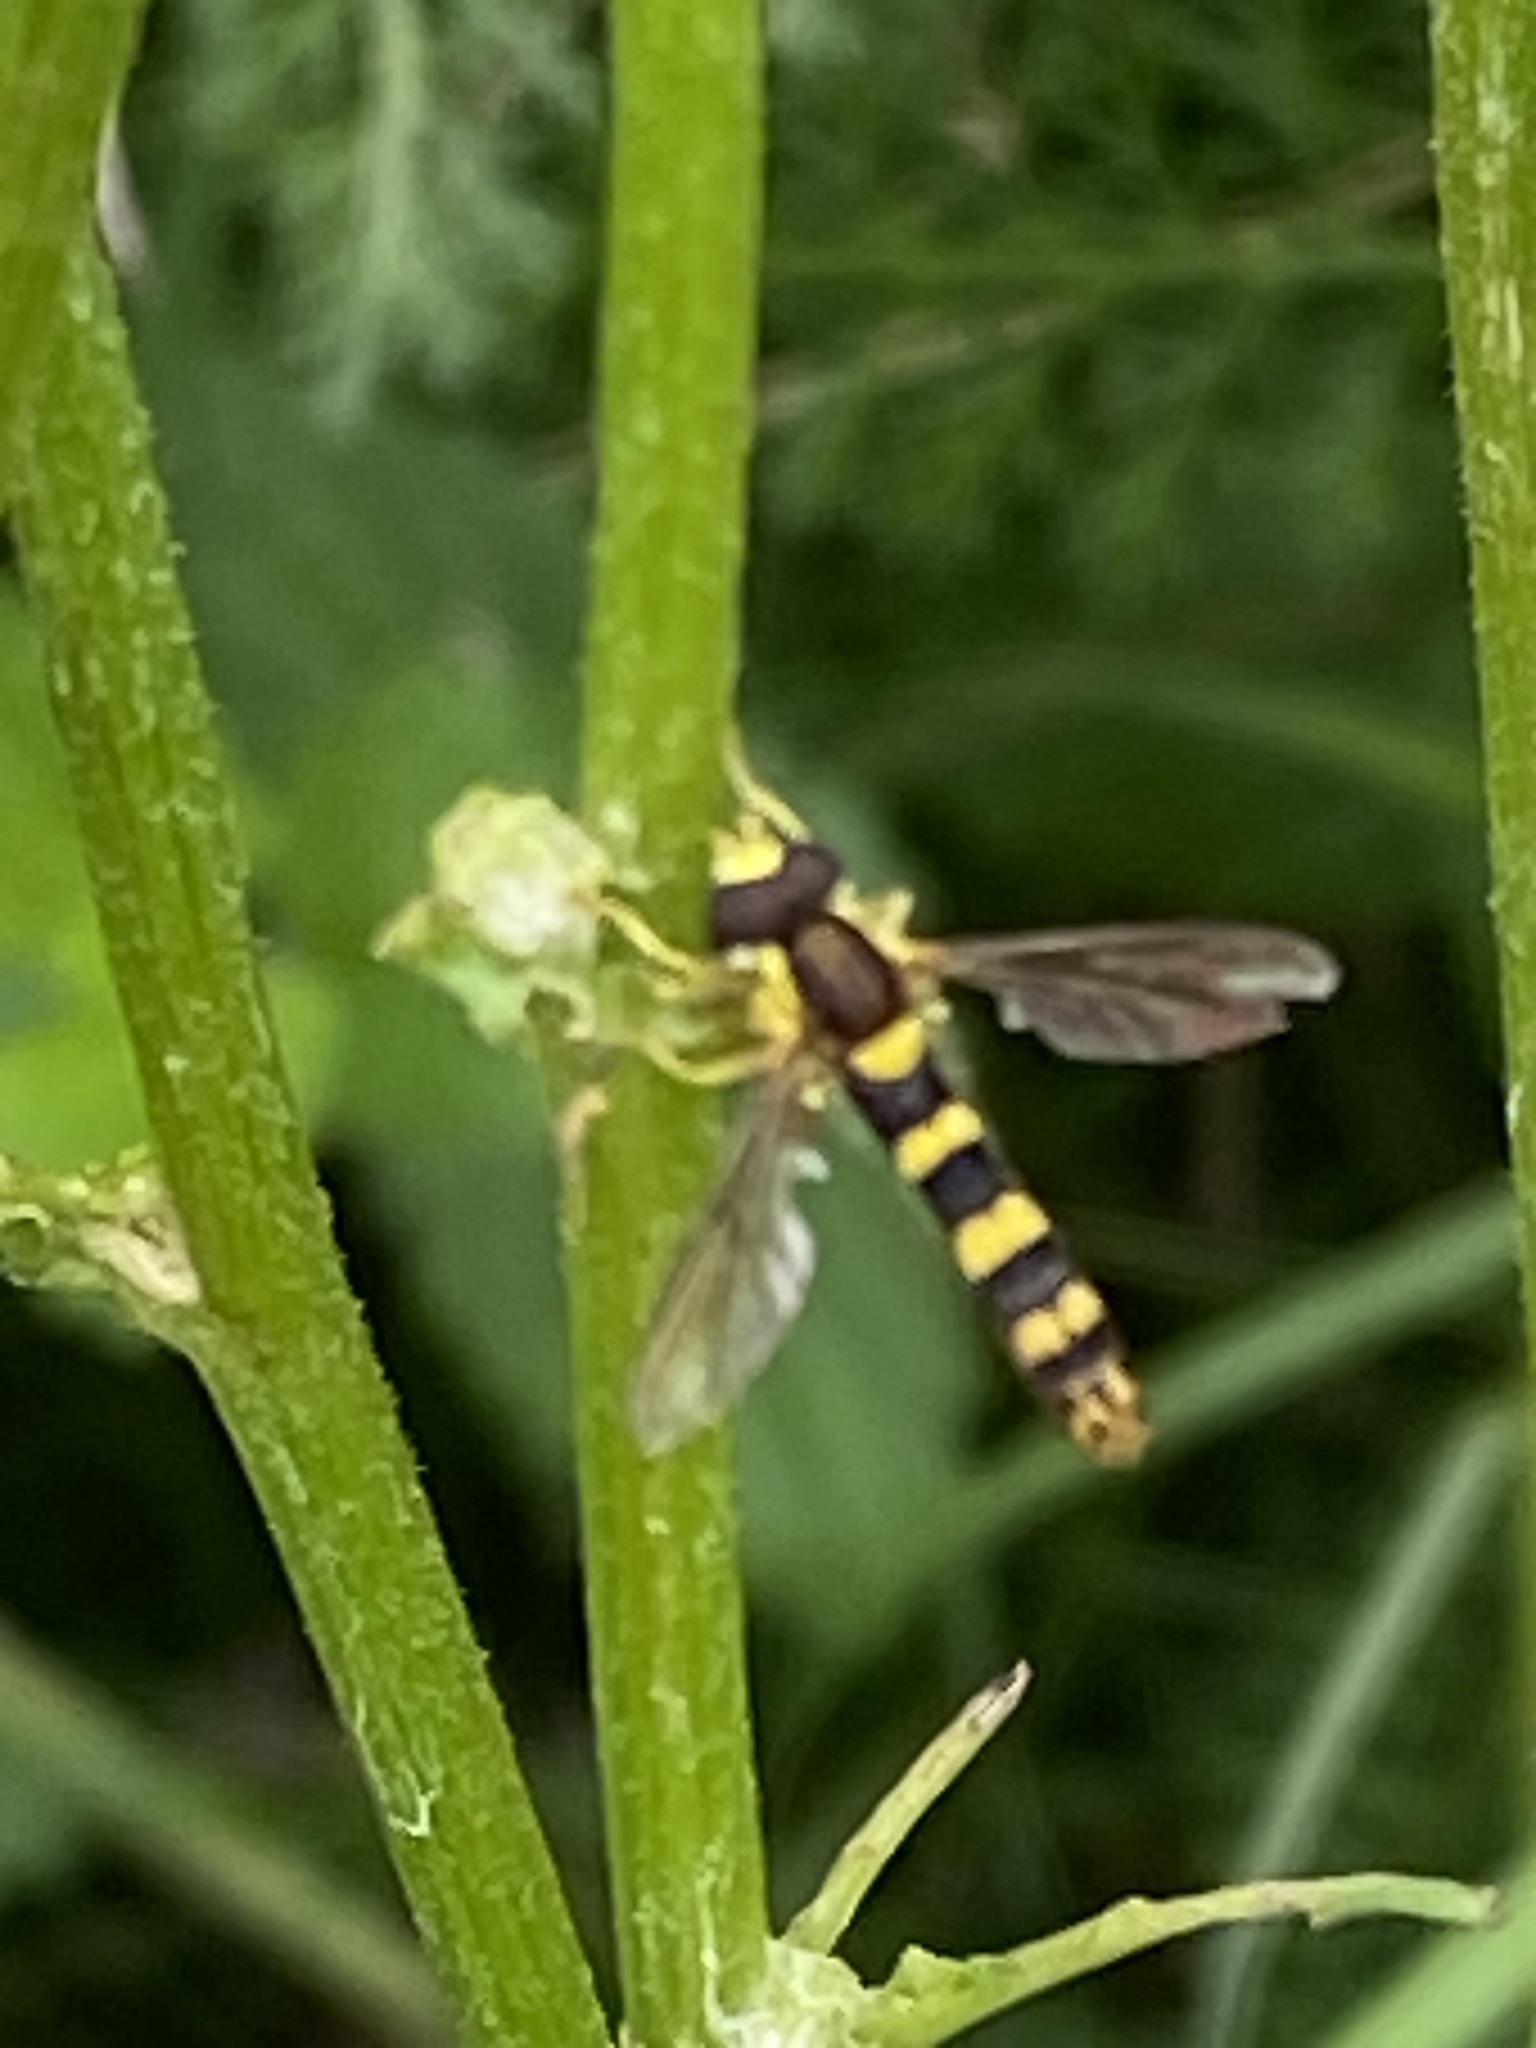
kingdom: Animalia
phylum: Arthropoda
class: Insecta
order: Diptera
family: Syrphidae
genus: Sphaerophoria
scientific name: Sphaerophoria scripta
